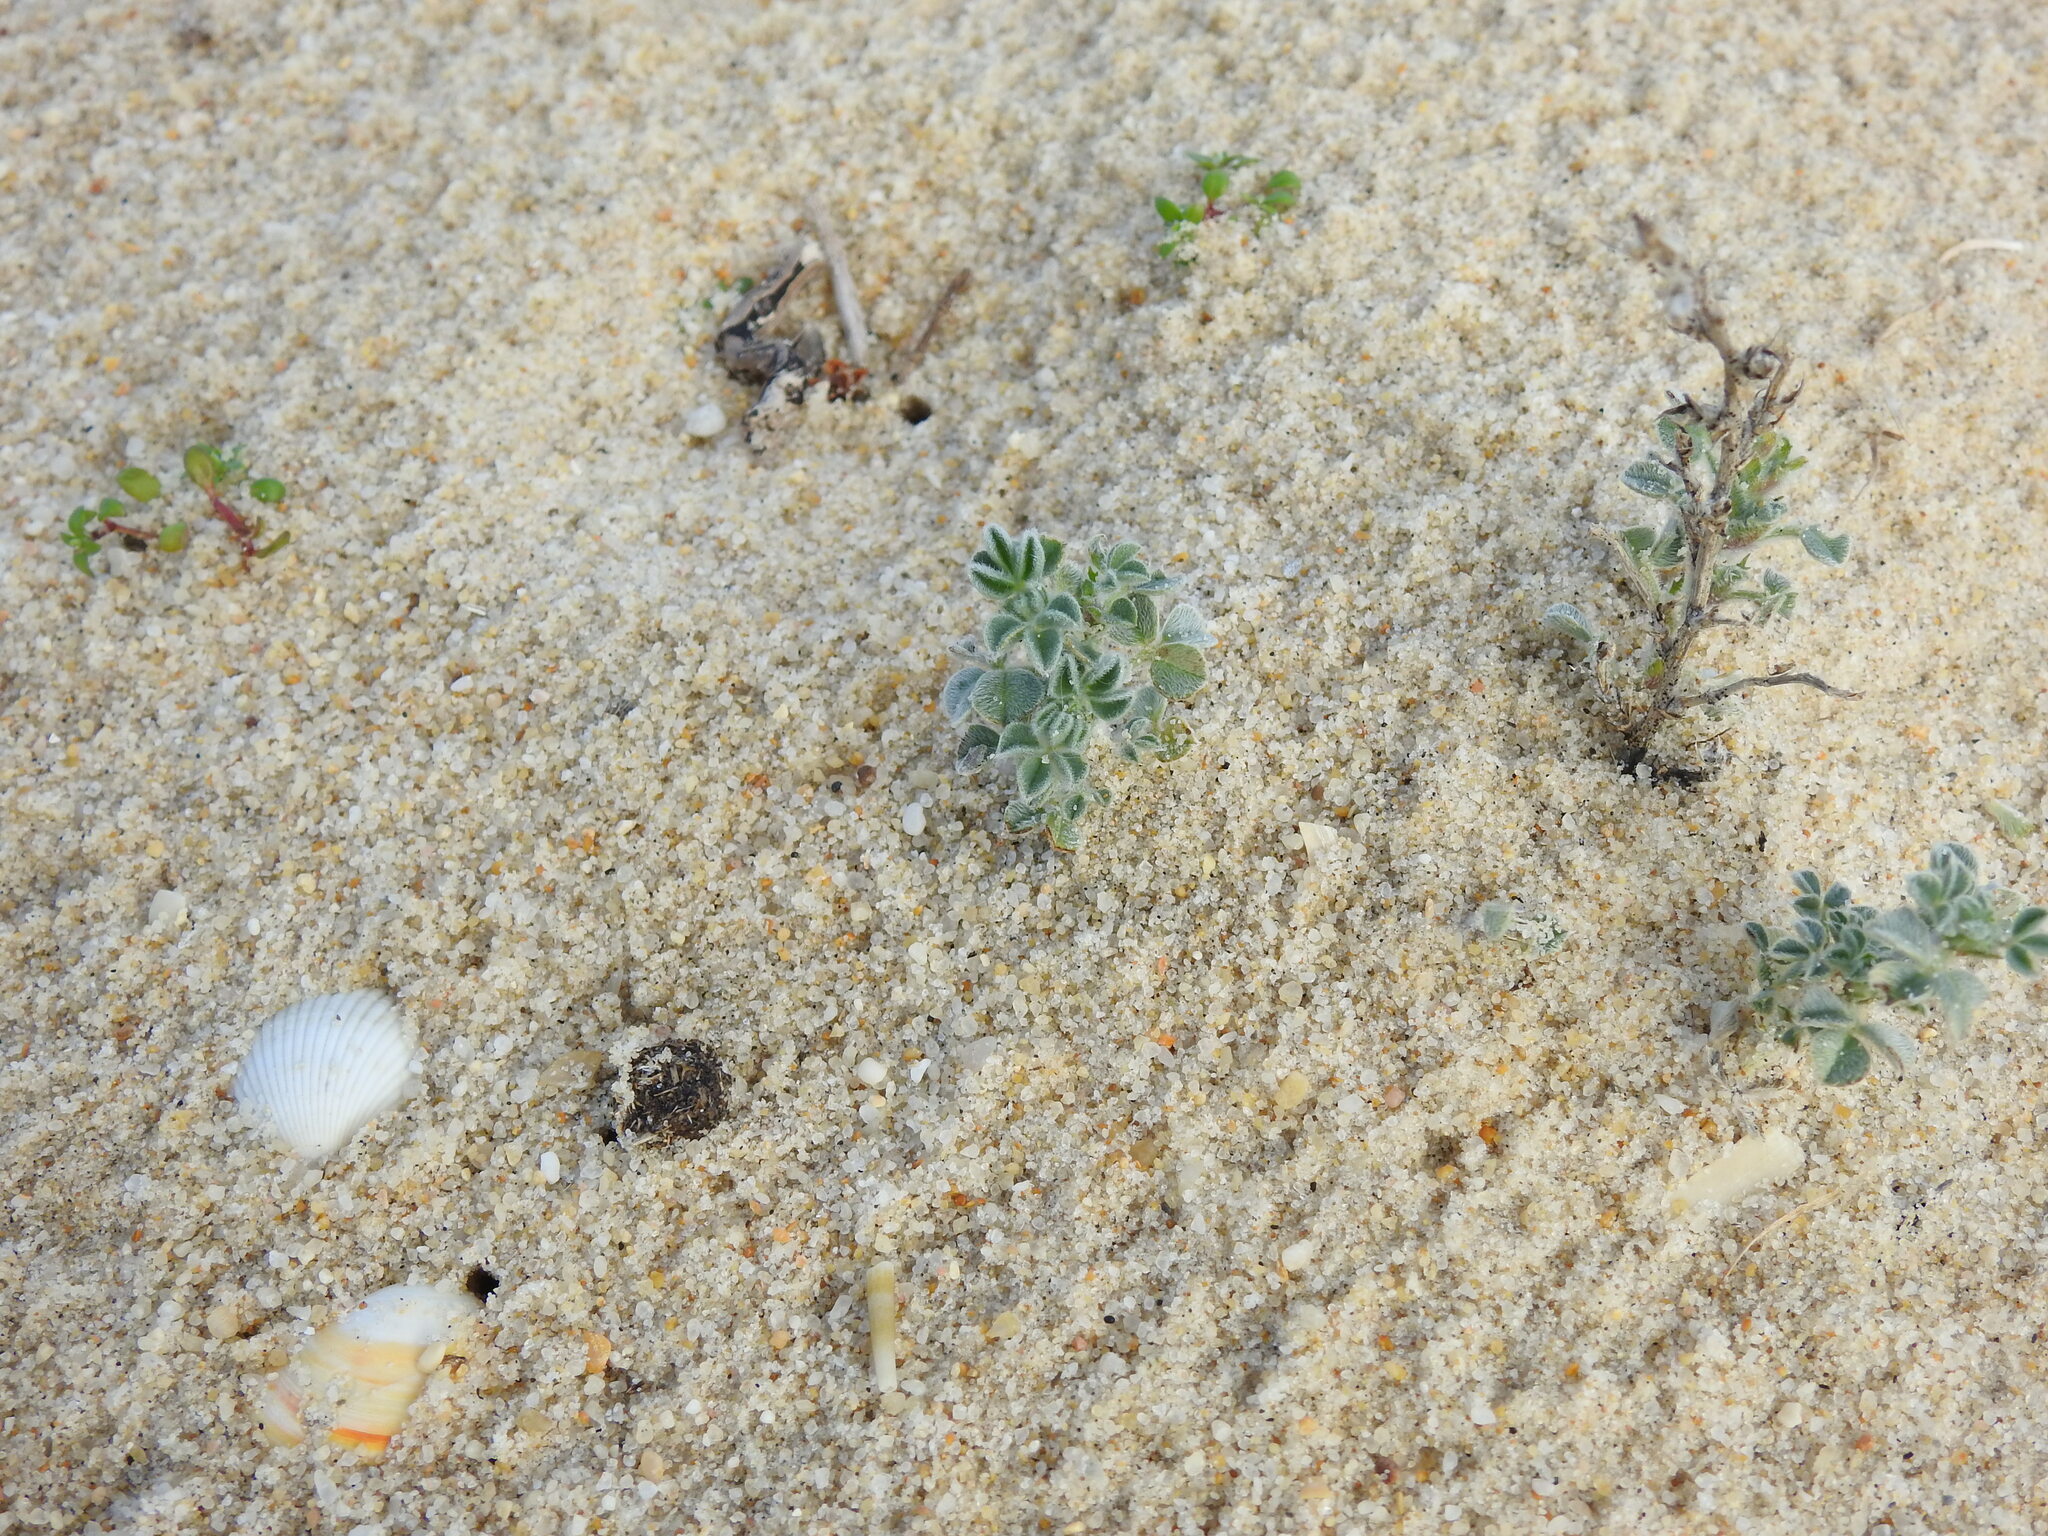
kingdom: Plantae
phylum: Tracheophyta
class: Magnoliopsida
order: Fabales
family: Fabaceae
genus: Medicago
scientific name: Medicago marina
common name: Sea medick
